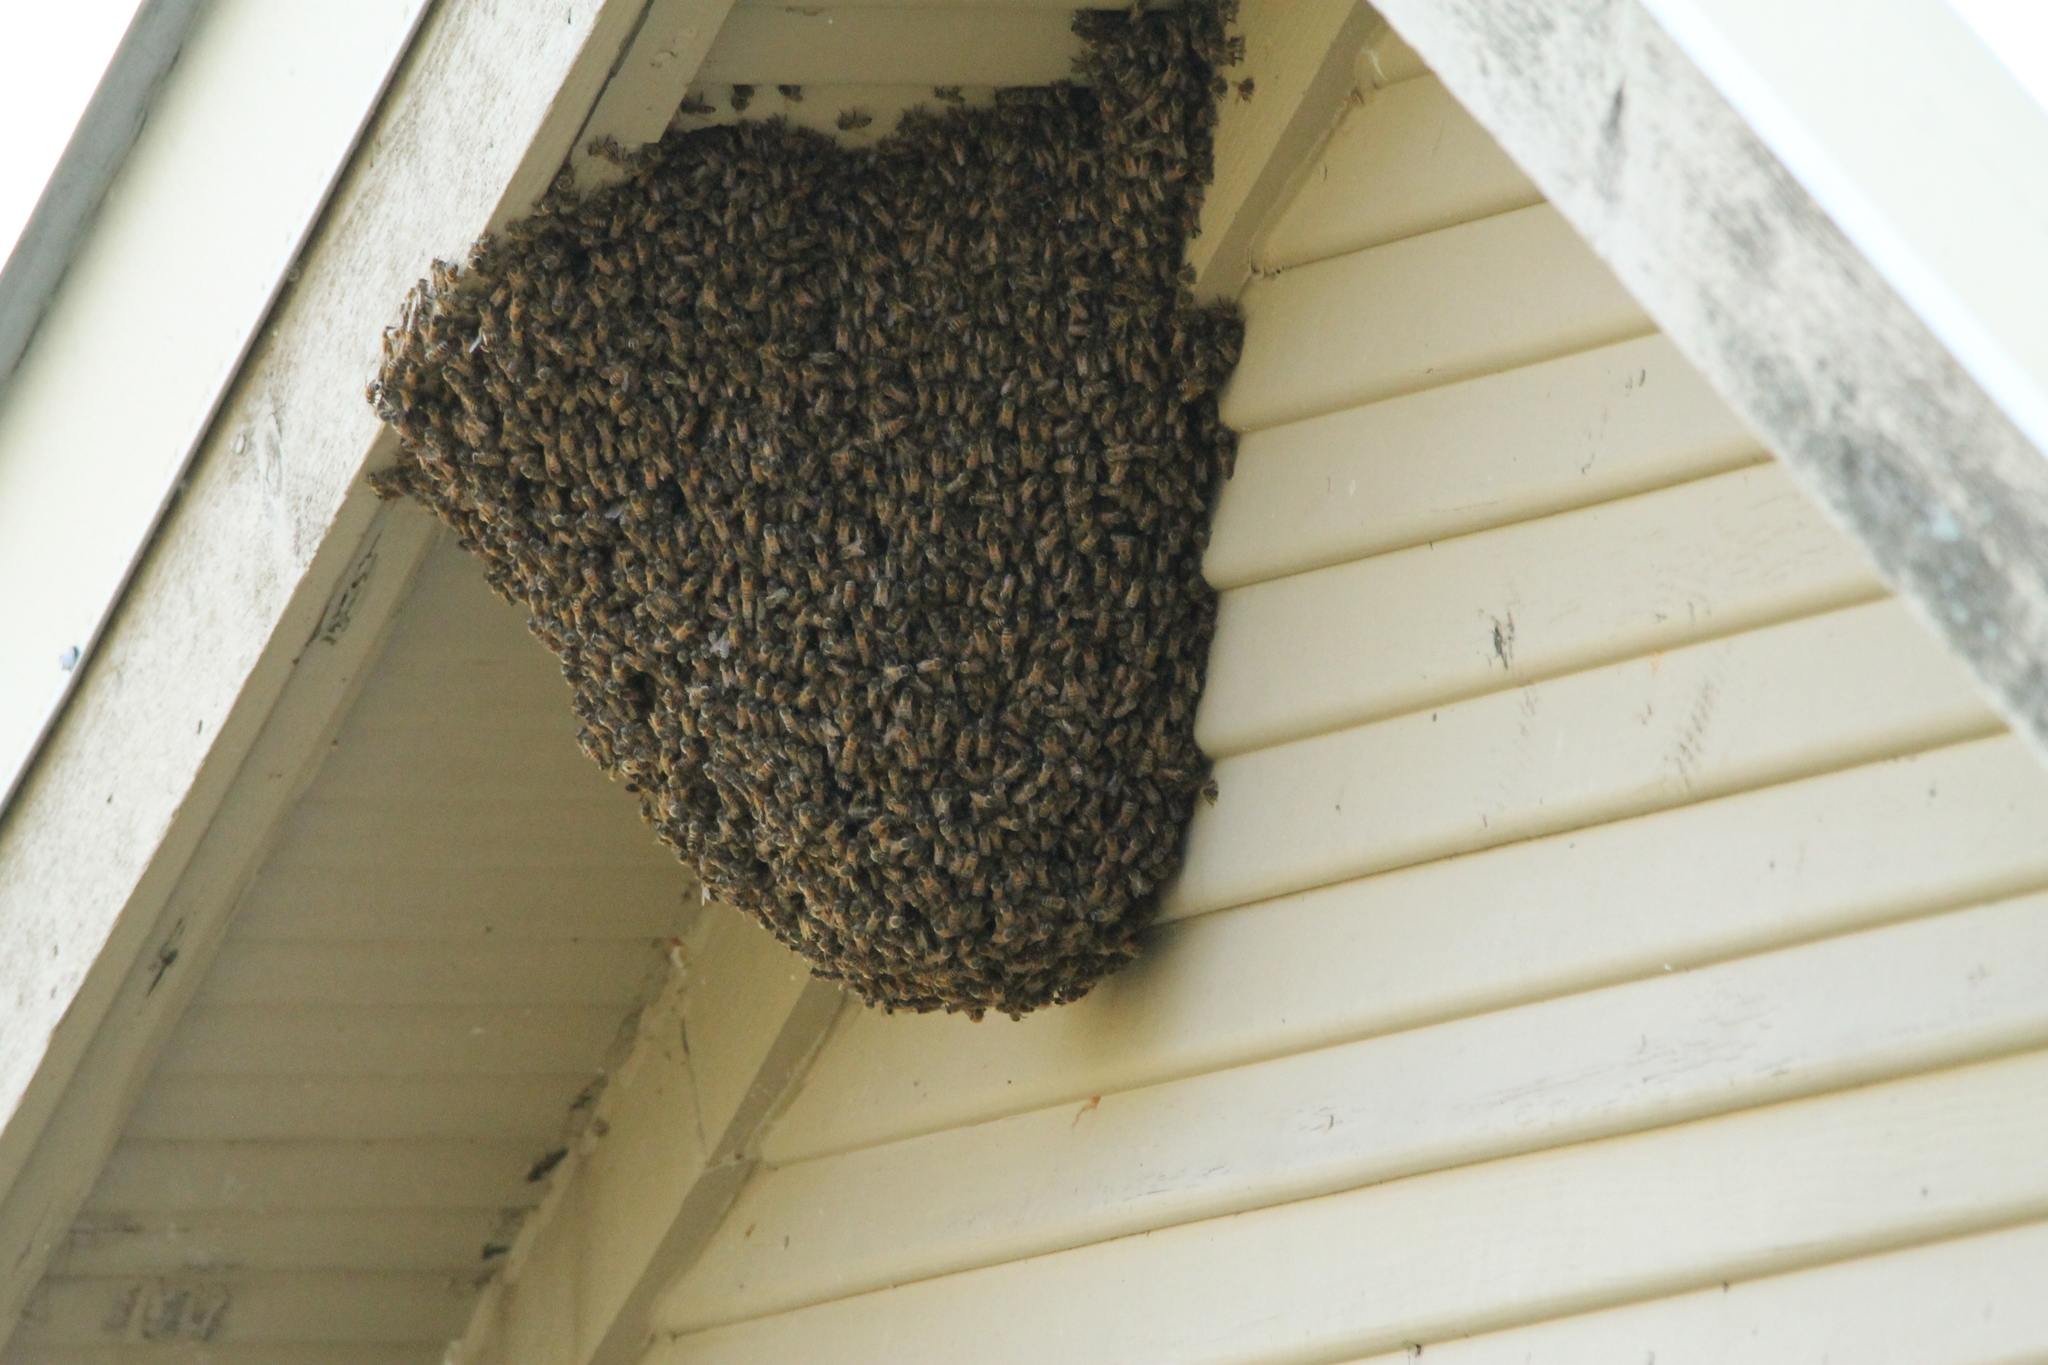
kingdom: Animalia
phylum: Arthropoda
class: Insecta
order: Hymenoptera
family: Apidae
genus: Apis
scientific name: Apis mellifera
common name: Honey bee
